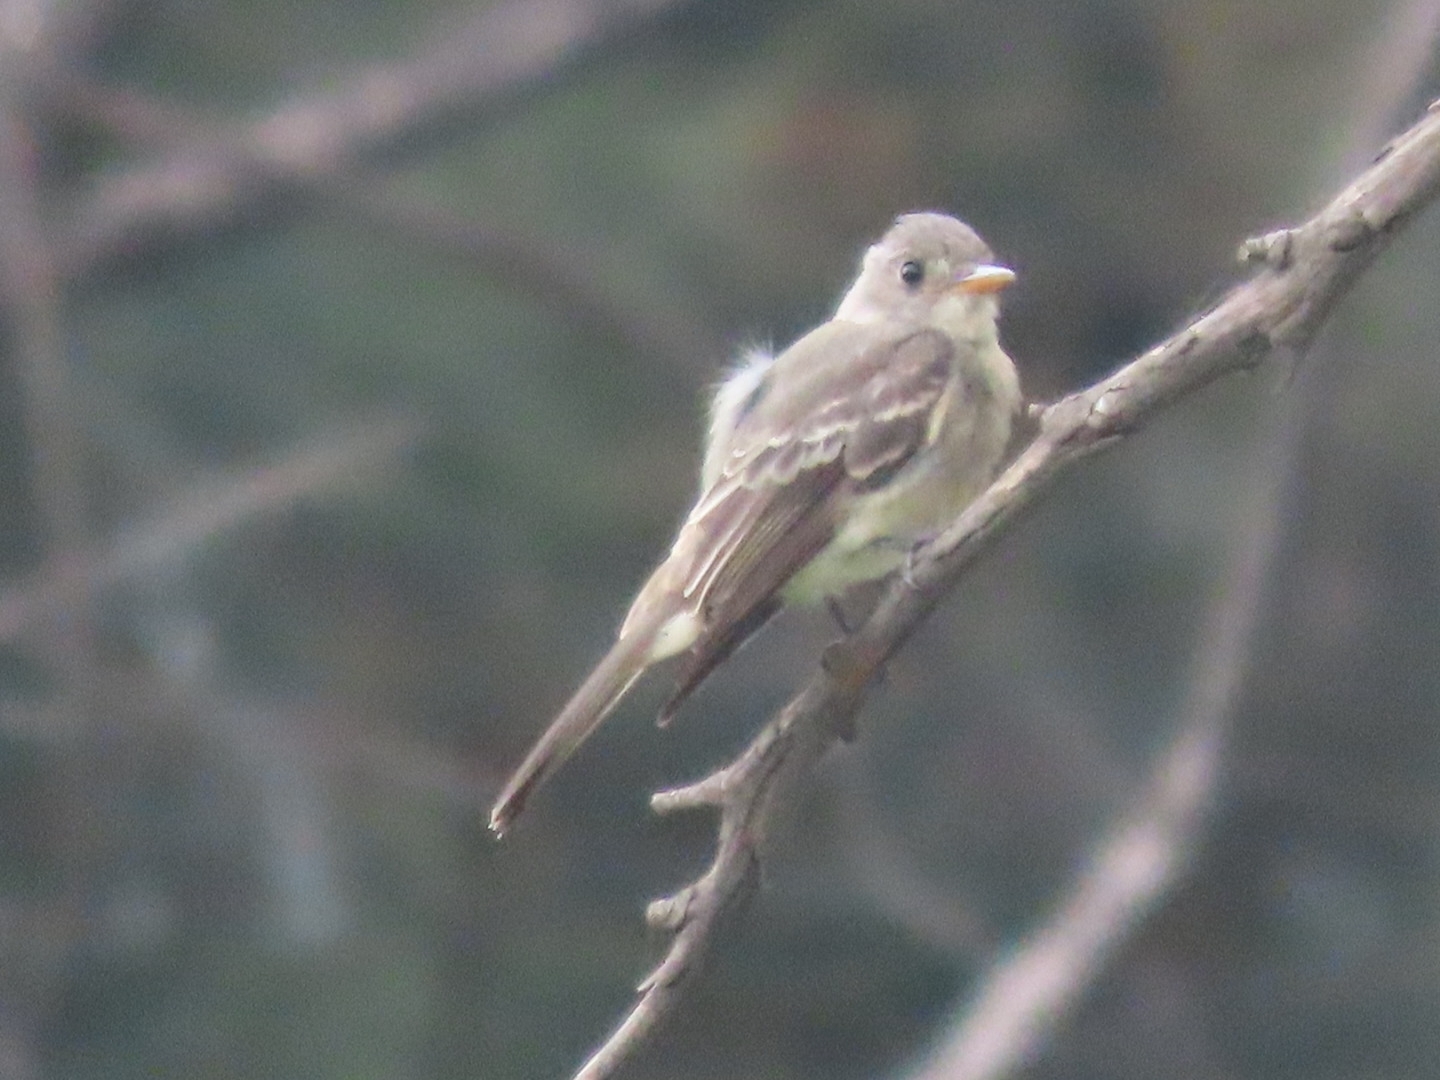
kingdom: Animalia
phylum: Chordata
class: Aves
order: Passeriformes
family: Tyrannidae
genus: Contopus
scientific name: Contopus pertinax
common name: Greater pewee
